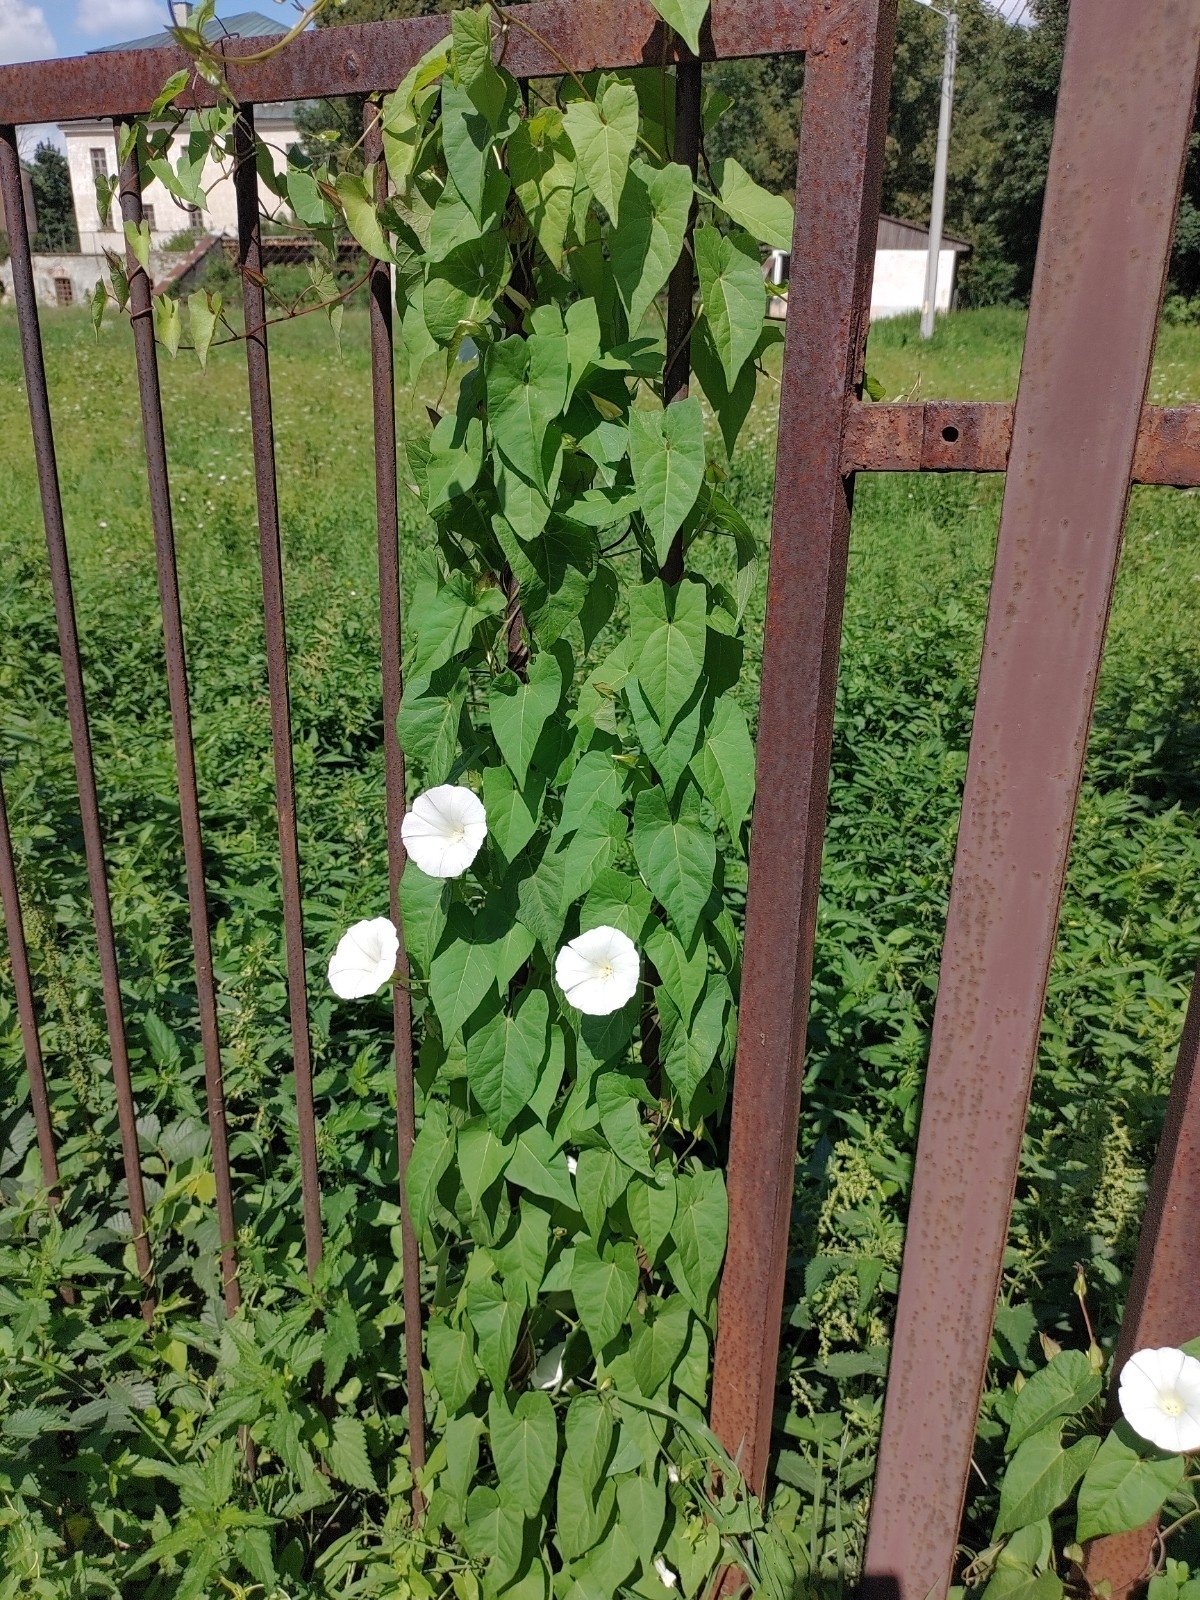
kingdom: Plantae
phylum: Tracheophyta
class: Magnoliopsida
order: Solanales
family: Convolvulaceae
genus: Calystegia
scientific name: Calystegia sepium
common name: Hedge bindweed
